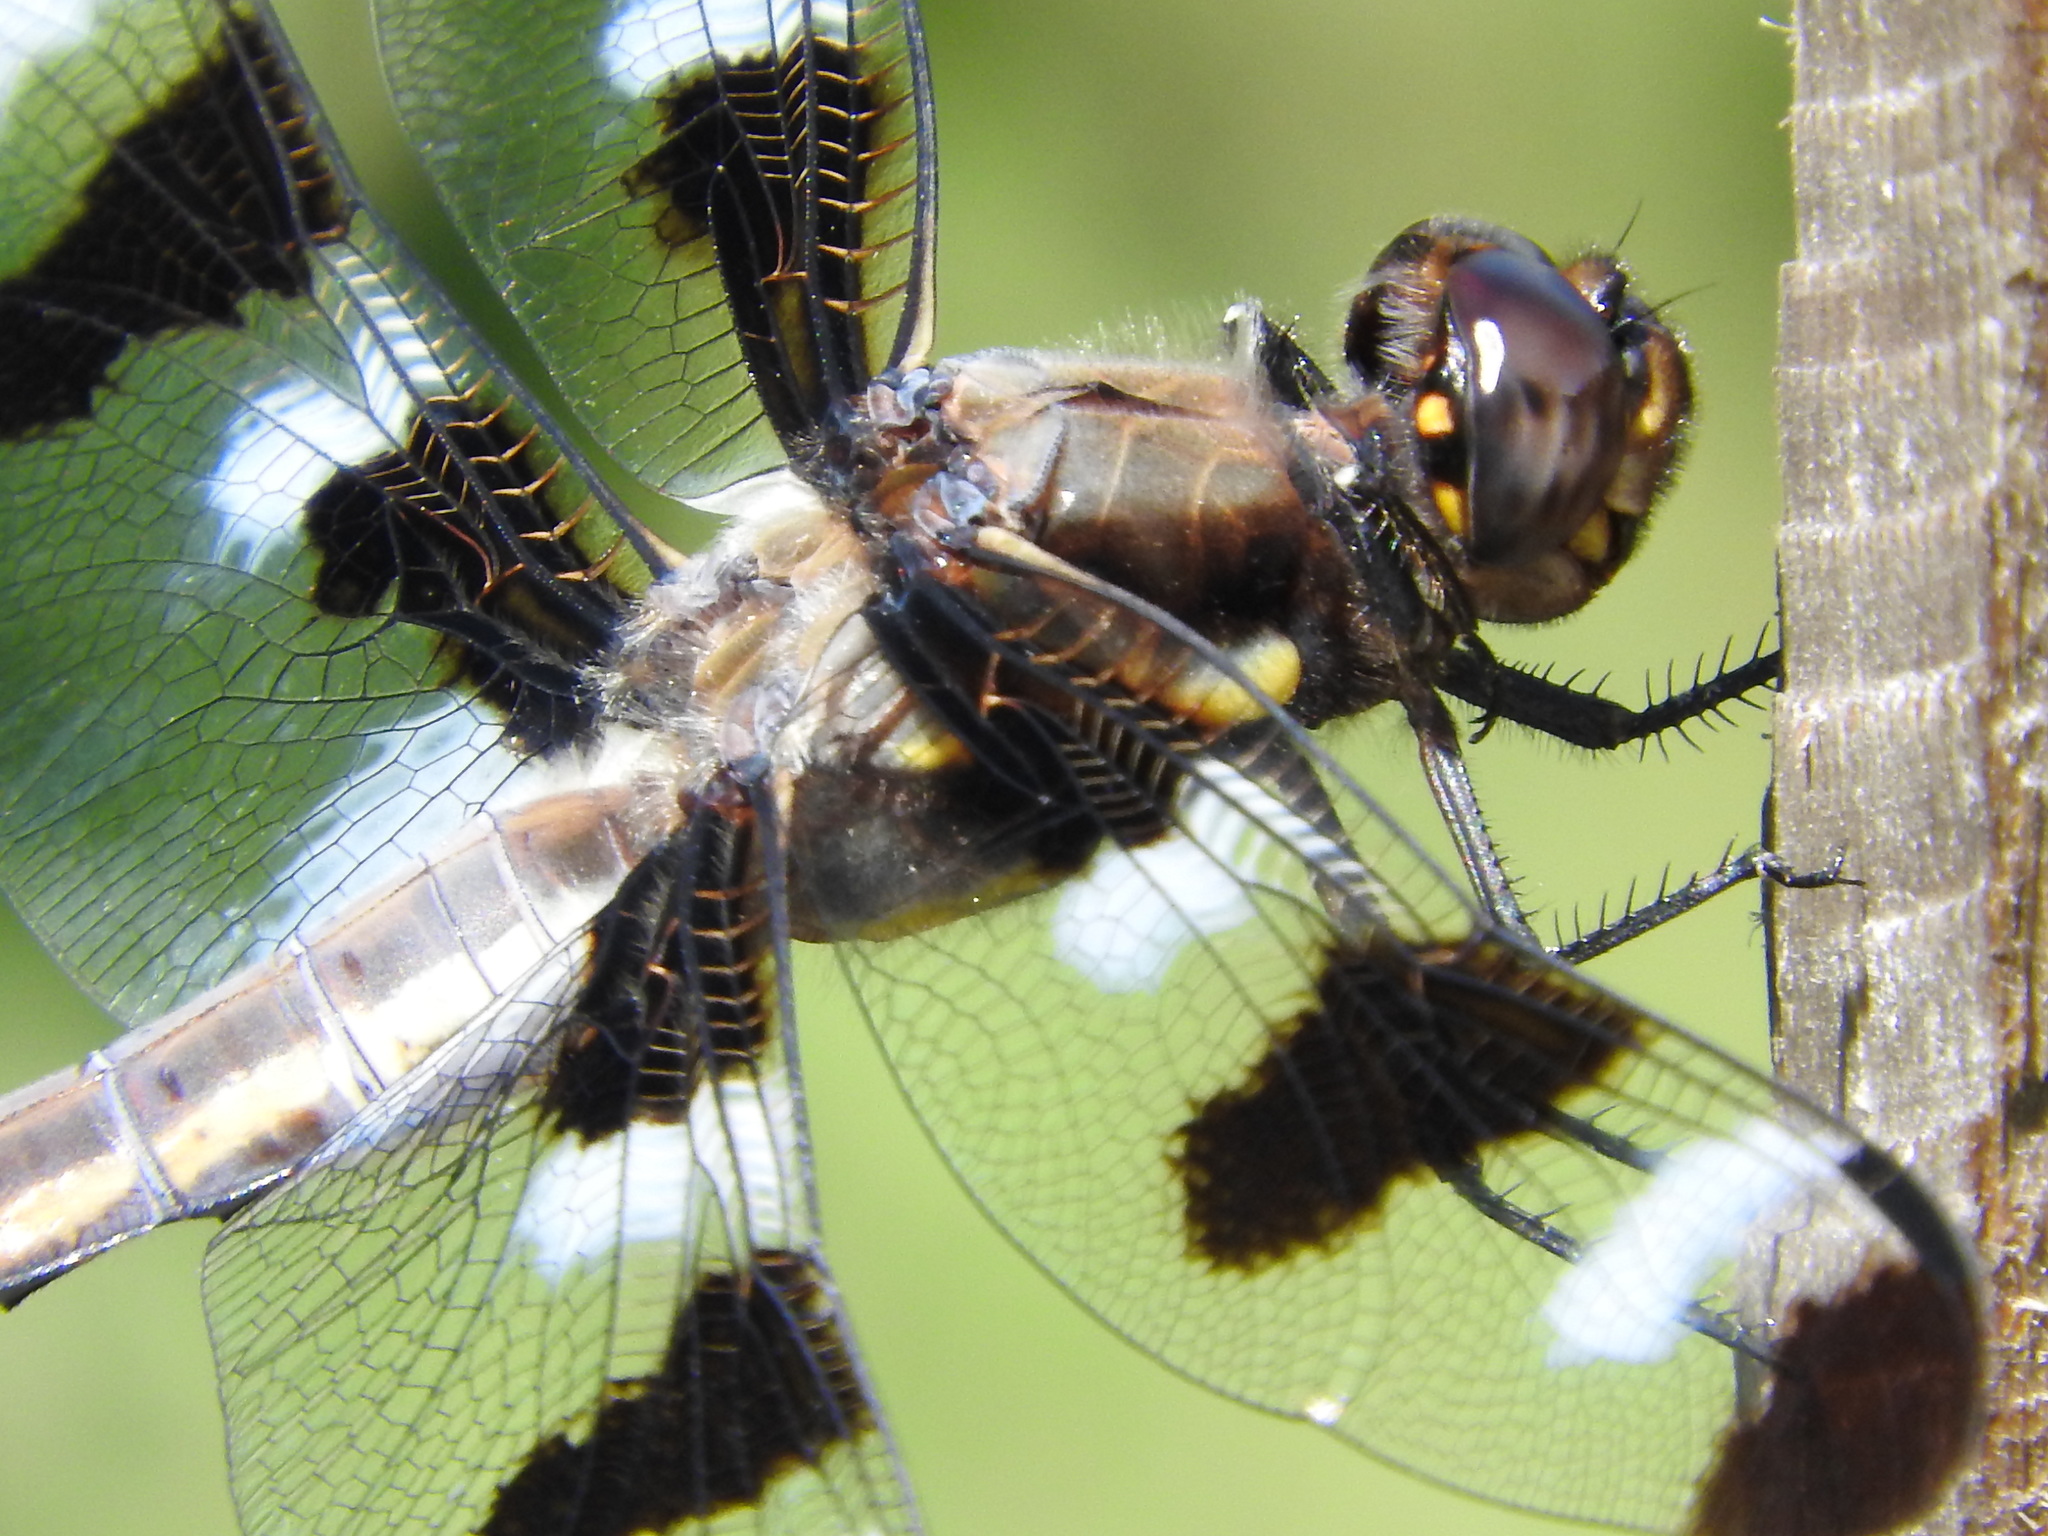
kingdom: Animalia
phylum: Arthropoda
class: Insecta
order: Odonata
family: Libellulidae
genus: Libellula
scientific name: Libellula pulchella
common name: Twelve-spotted skimmer
